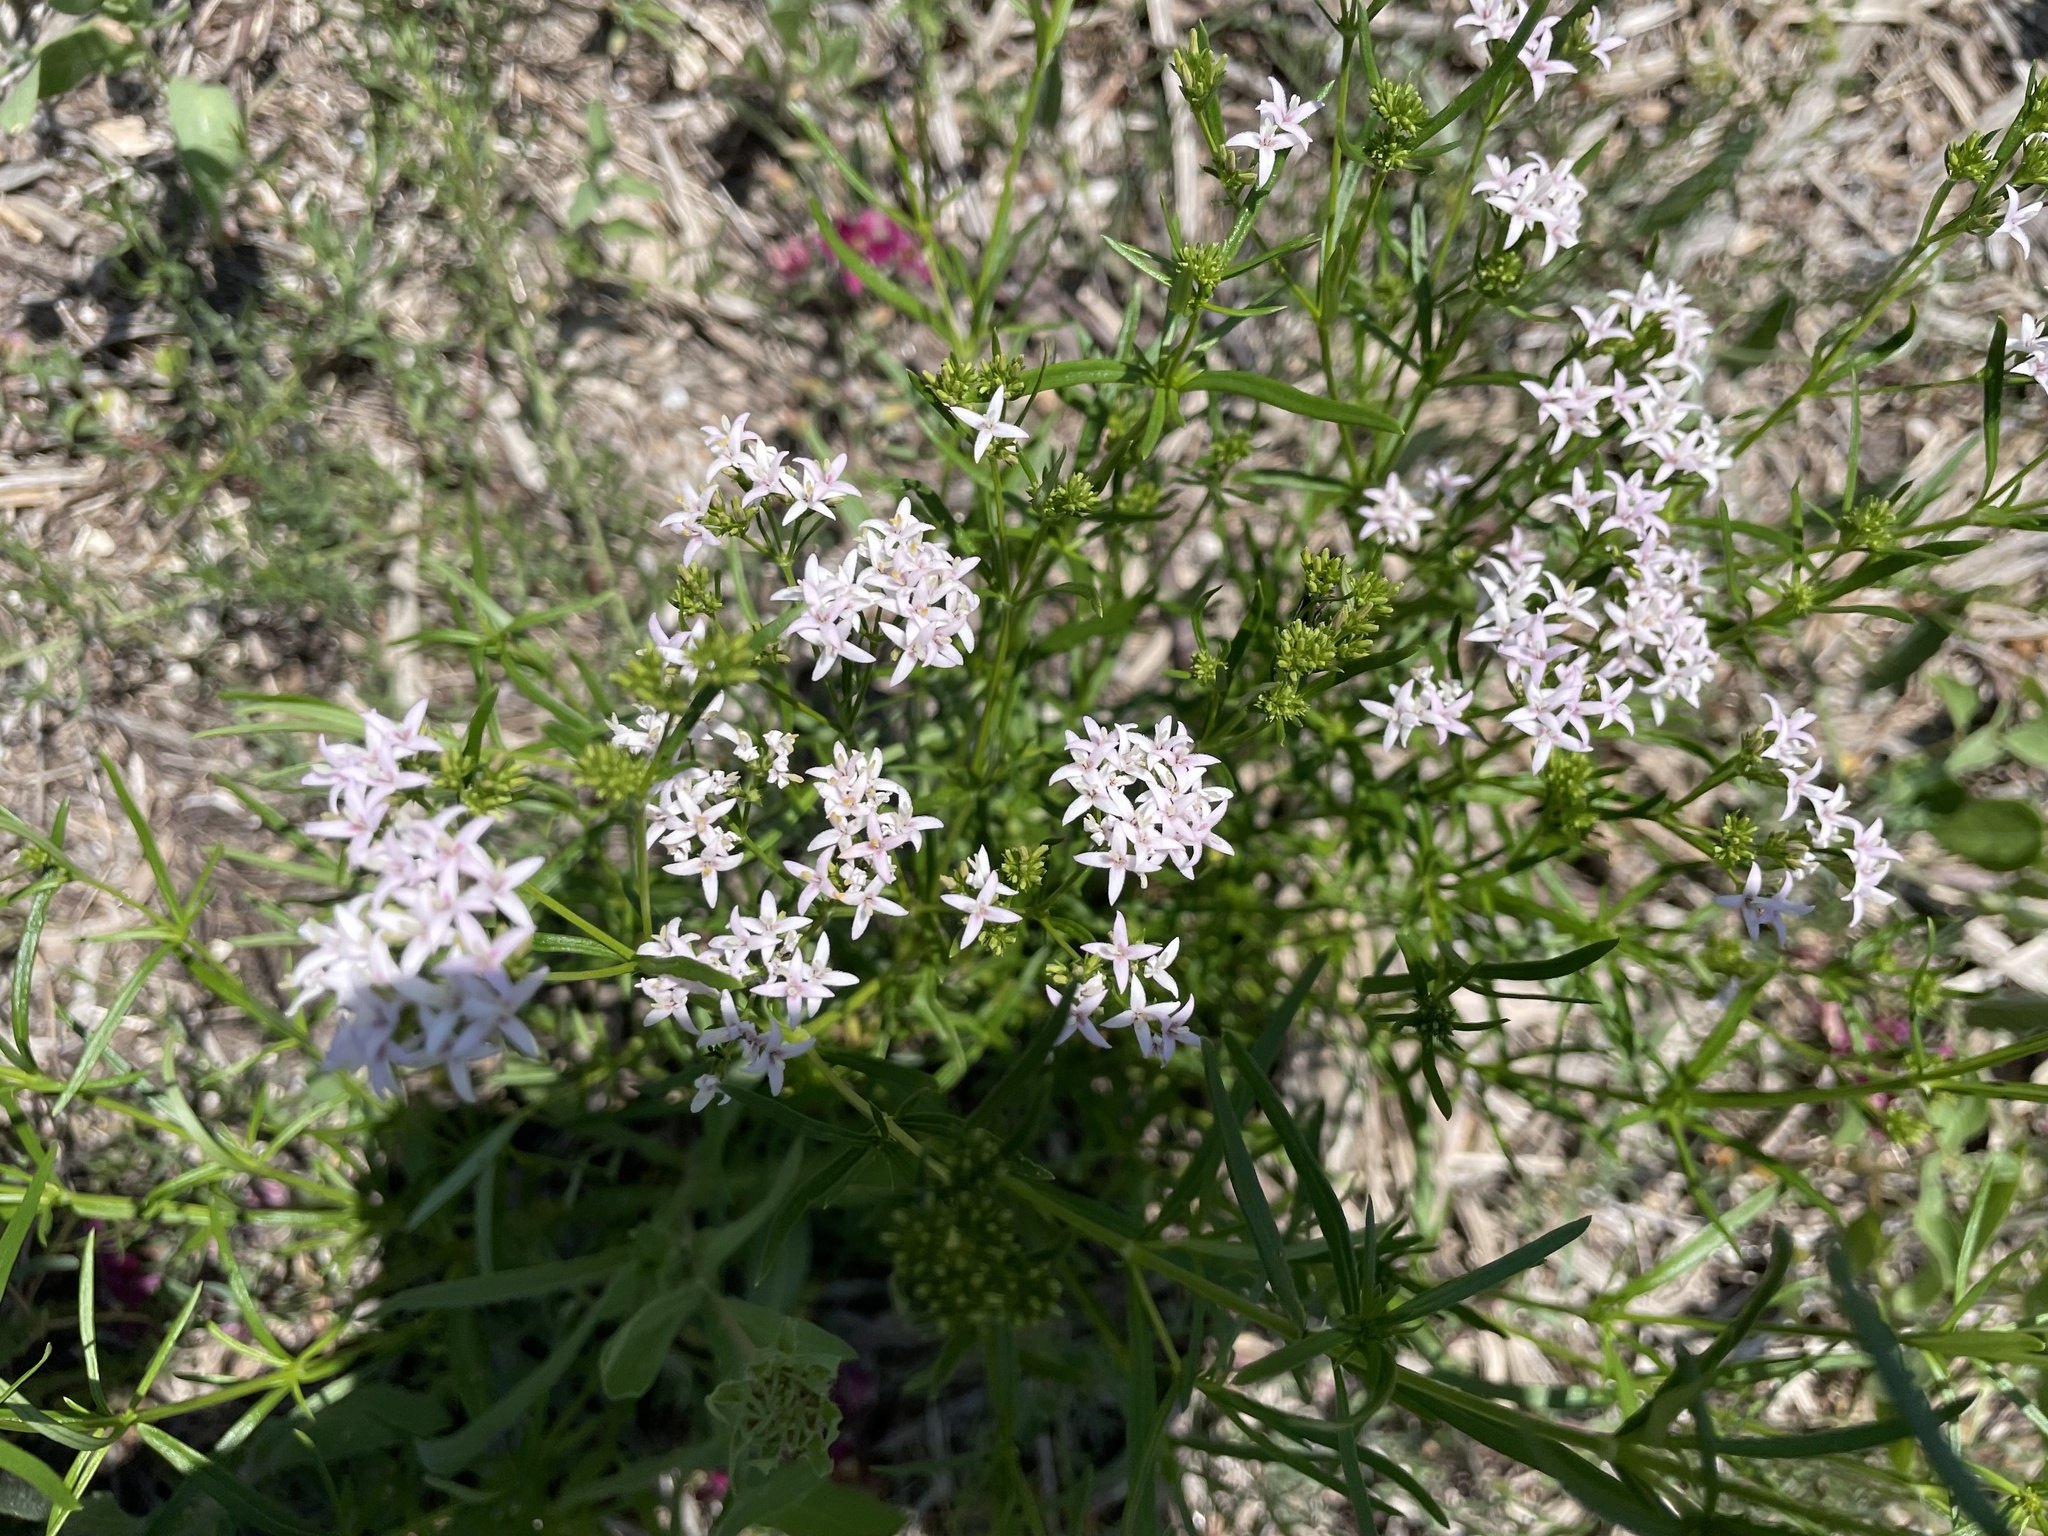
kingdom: Plantae
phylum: Tracheophyta
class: Magnoliopsida
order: Gentianales
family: Rubiaceae
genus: Stenaria
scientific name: Stenaria nigricans
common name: Diamondflowers
